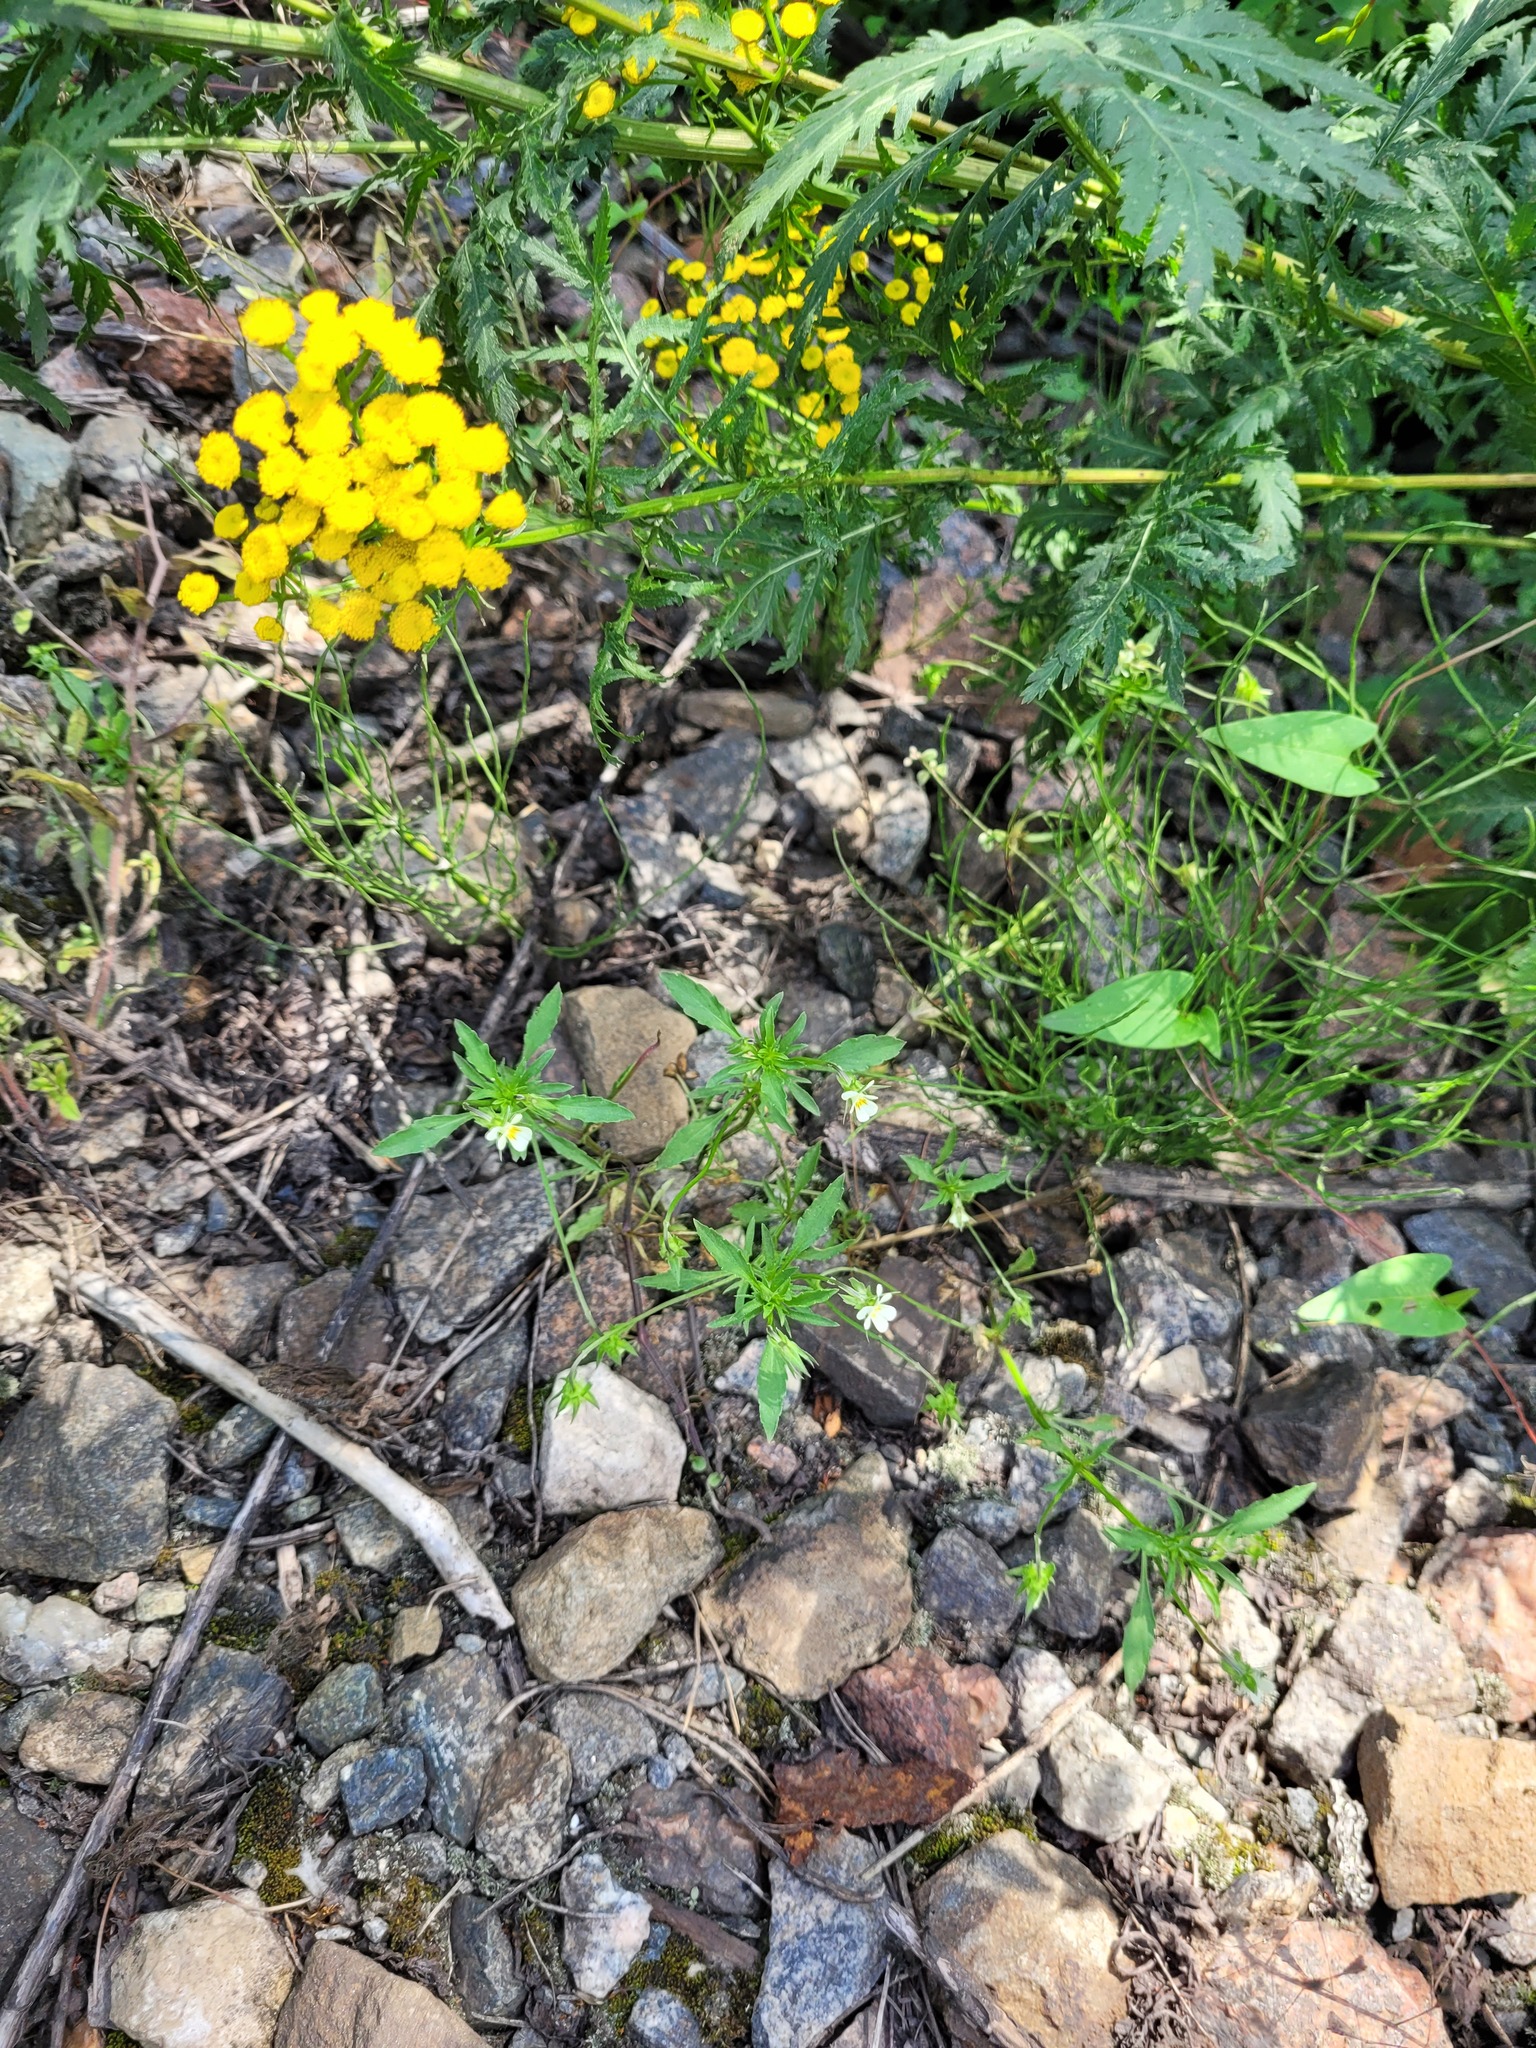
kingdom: Plantae
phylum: Tracheophyta
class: Magnoliopsida
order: Malpighiales
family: Violaceae
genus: Viola
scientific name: Viola arvensis
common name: Field pansy
